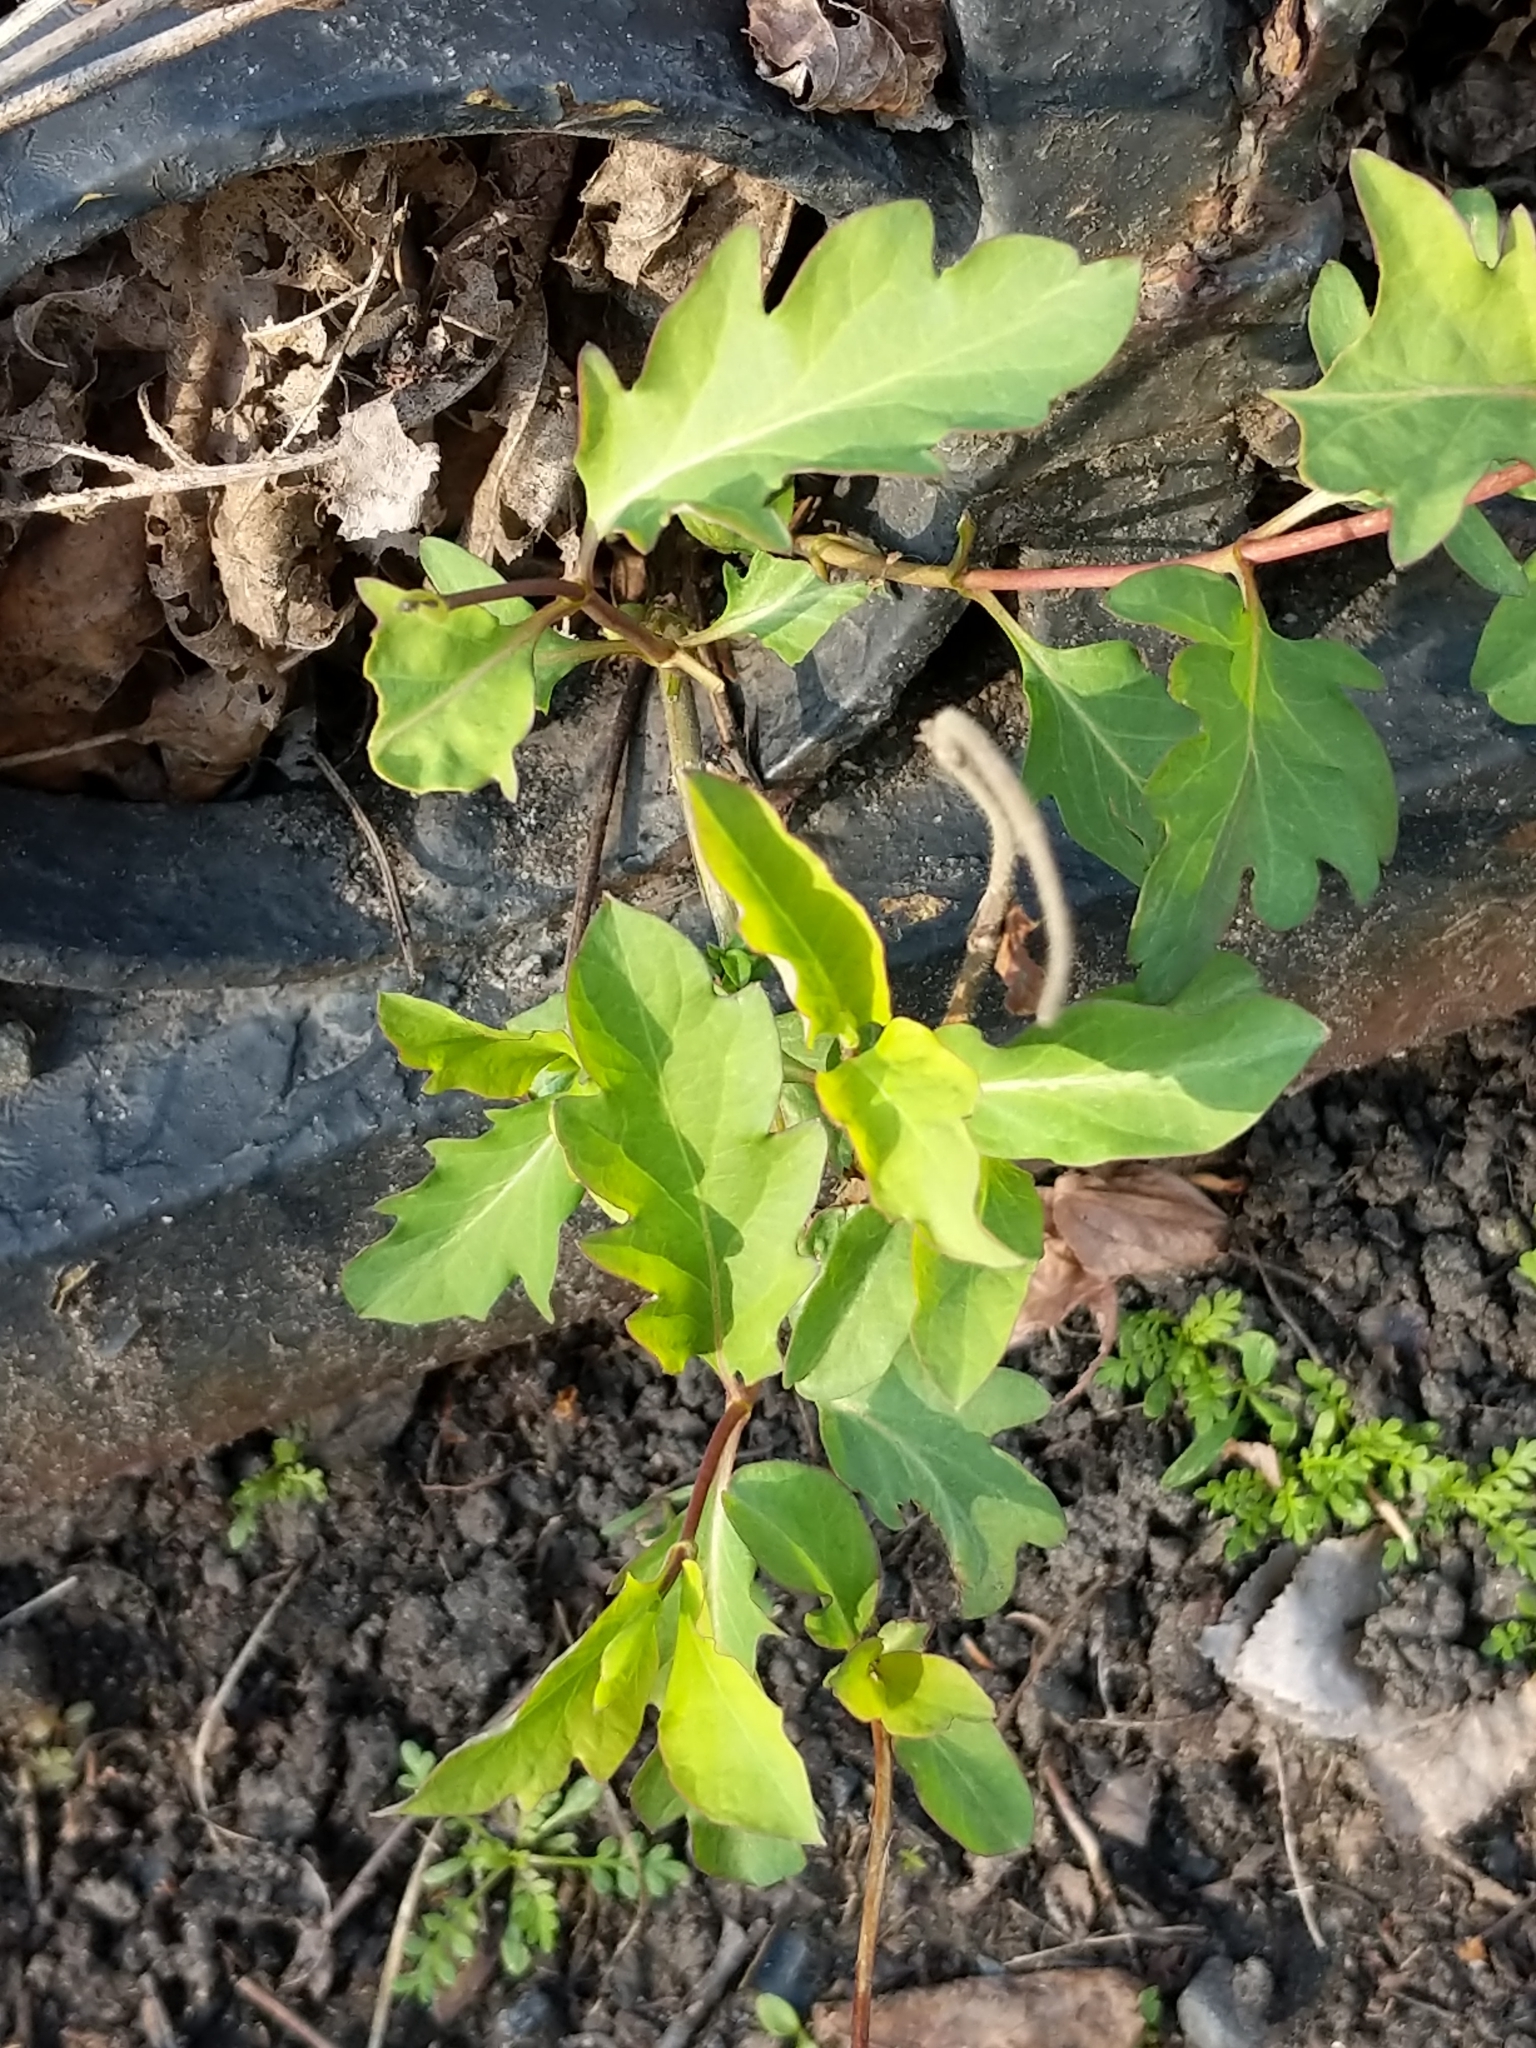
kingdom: Plantae
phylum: Tracheophyta
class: Magnoliopsida
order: Dipsacales
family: Caprifoliaceae
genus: Lonicera
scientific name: Lonicera japonica
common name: Japanese honeysuckle
